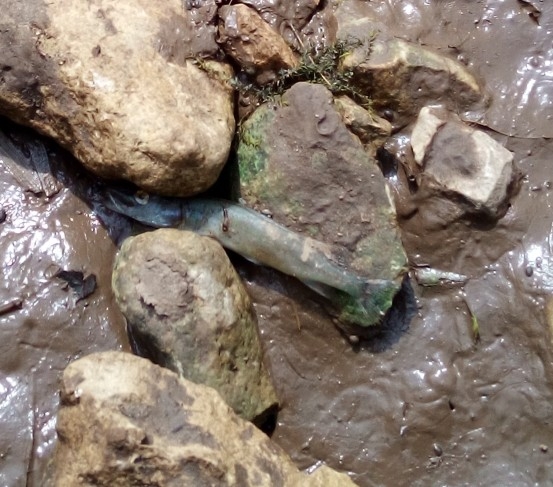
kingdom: Animalia
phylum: Chordata
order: Esociformes
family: Esocidae
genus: Esox
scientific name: Esox lucius
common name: Northern pike
